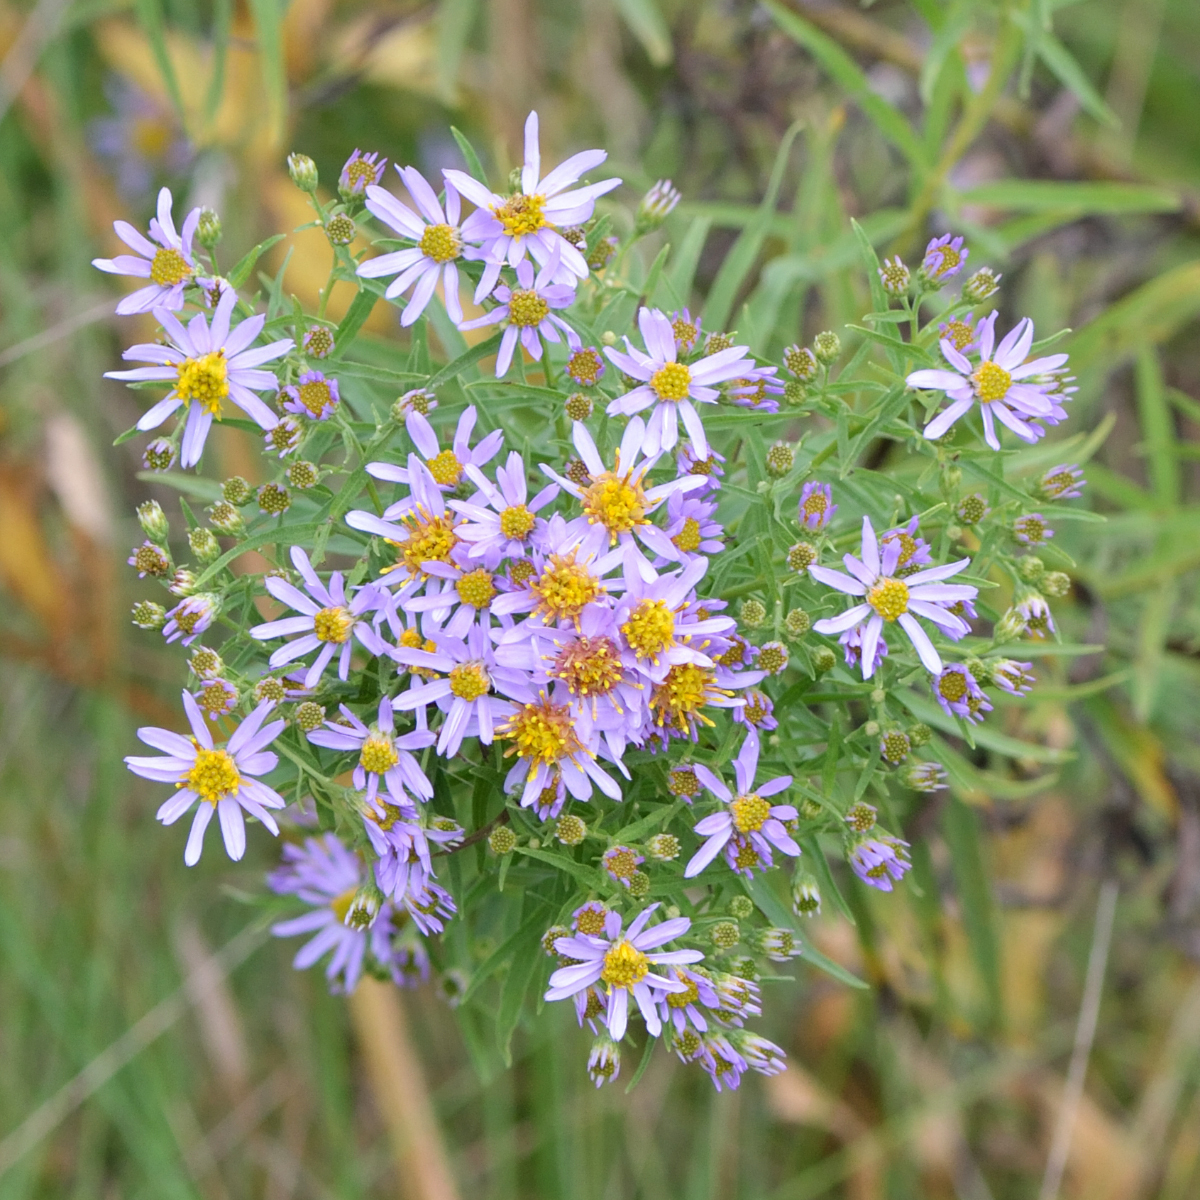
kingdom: Plantae
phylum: Tracheophyta
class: Magnoliopsida
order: Asterales
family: Asteraceae
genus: Galatella
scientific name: Galatella sedifolia
